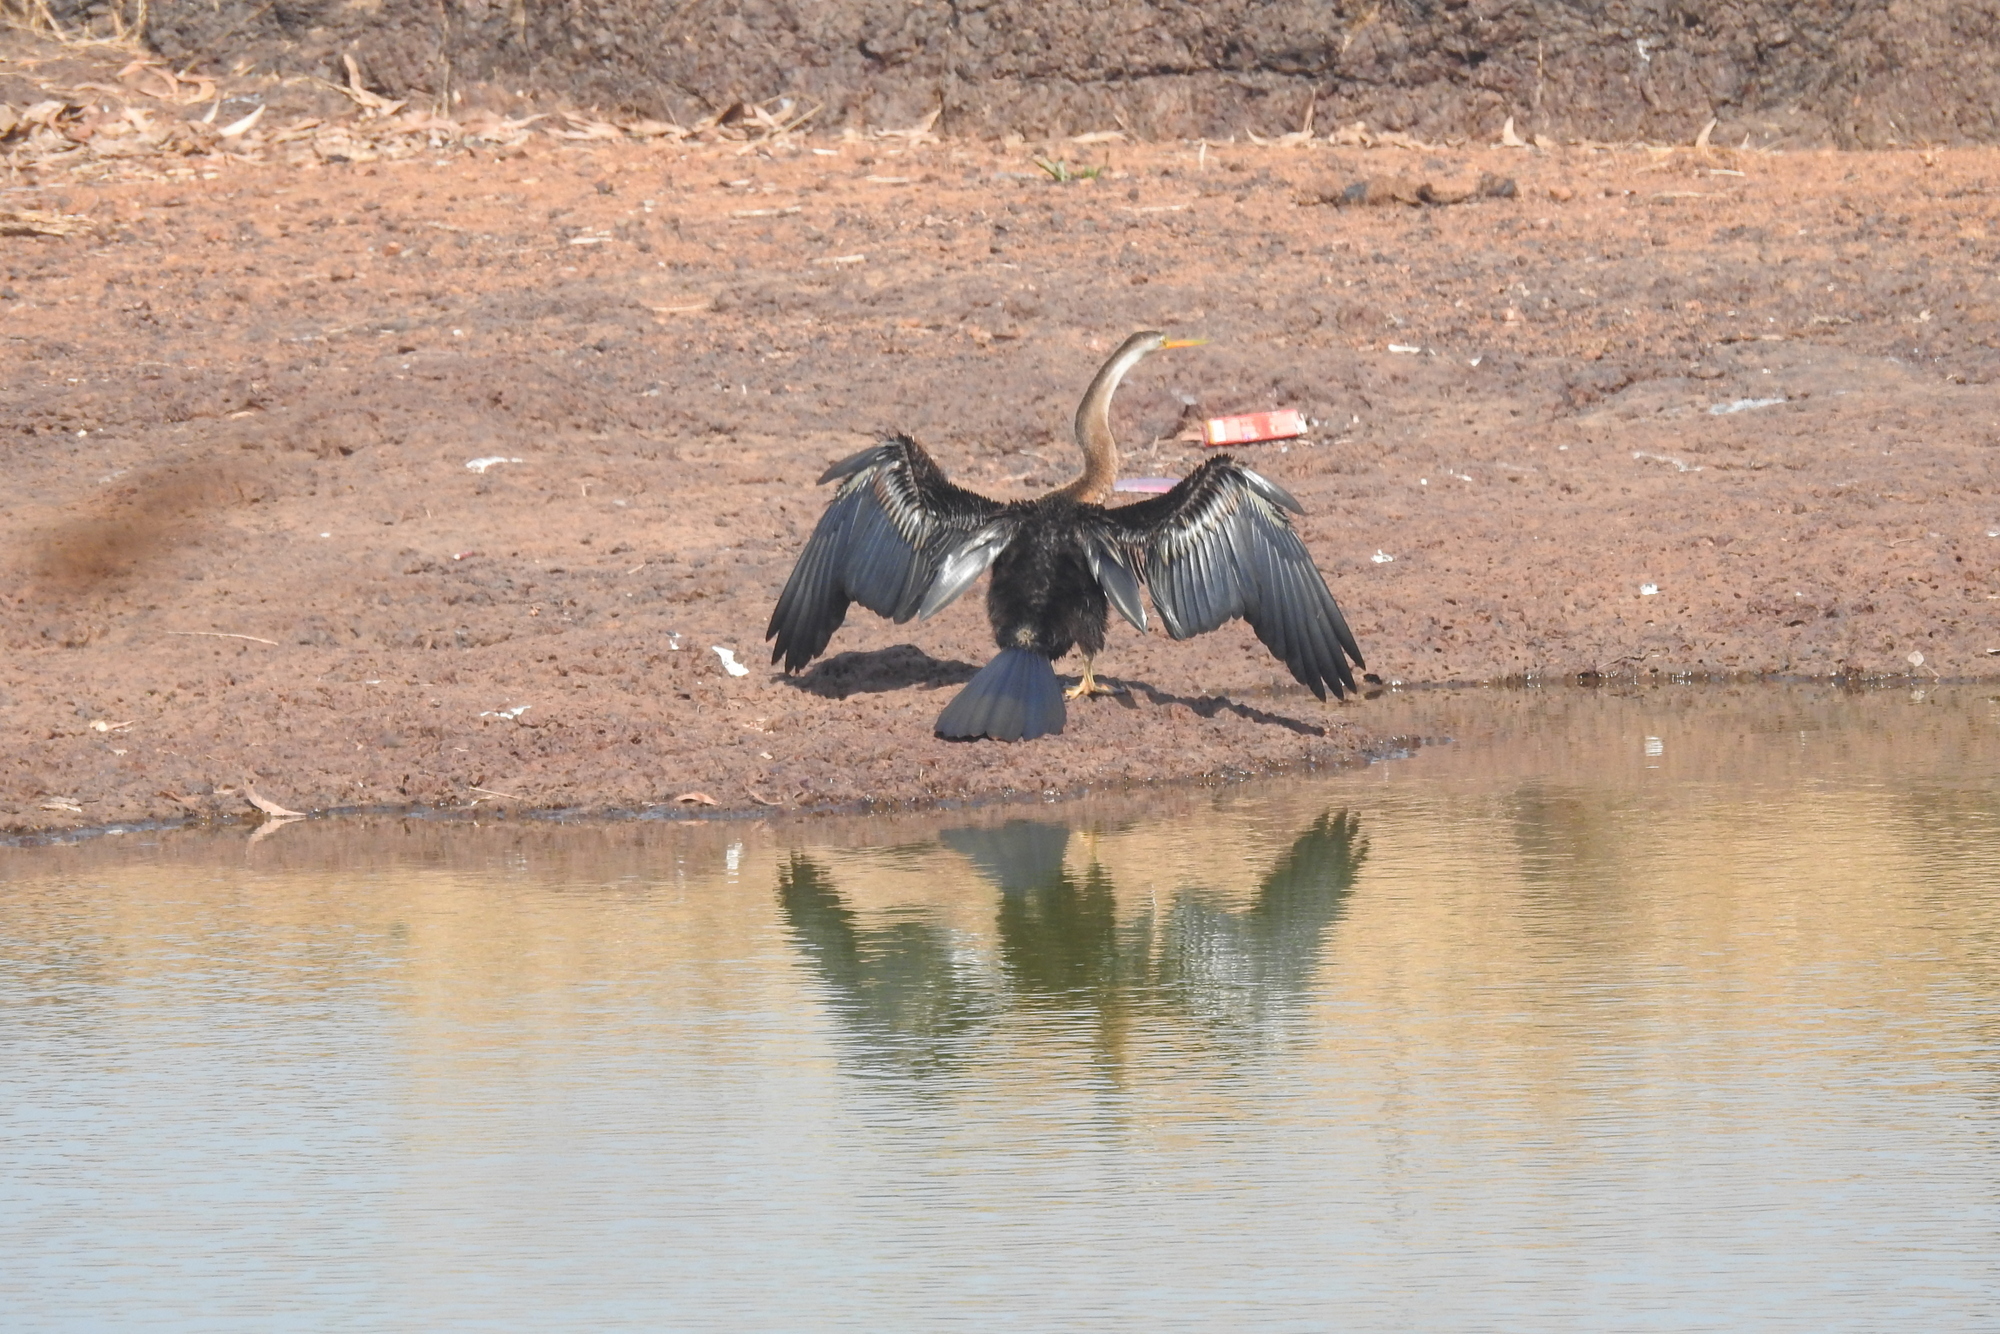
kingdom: Animalia
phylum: Chordata
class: Aves
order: Suliformes
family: Anhingidae
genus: Anhinga
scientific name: Anhinga melanogaster
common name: Oriental darter
